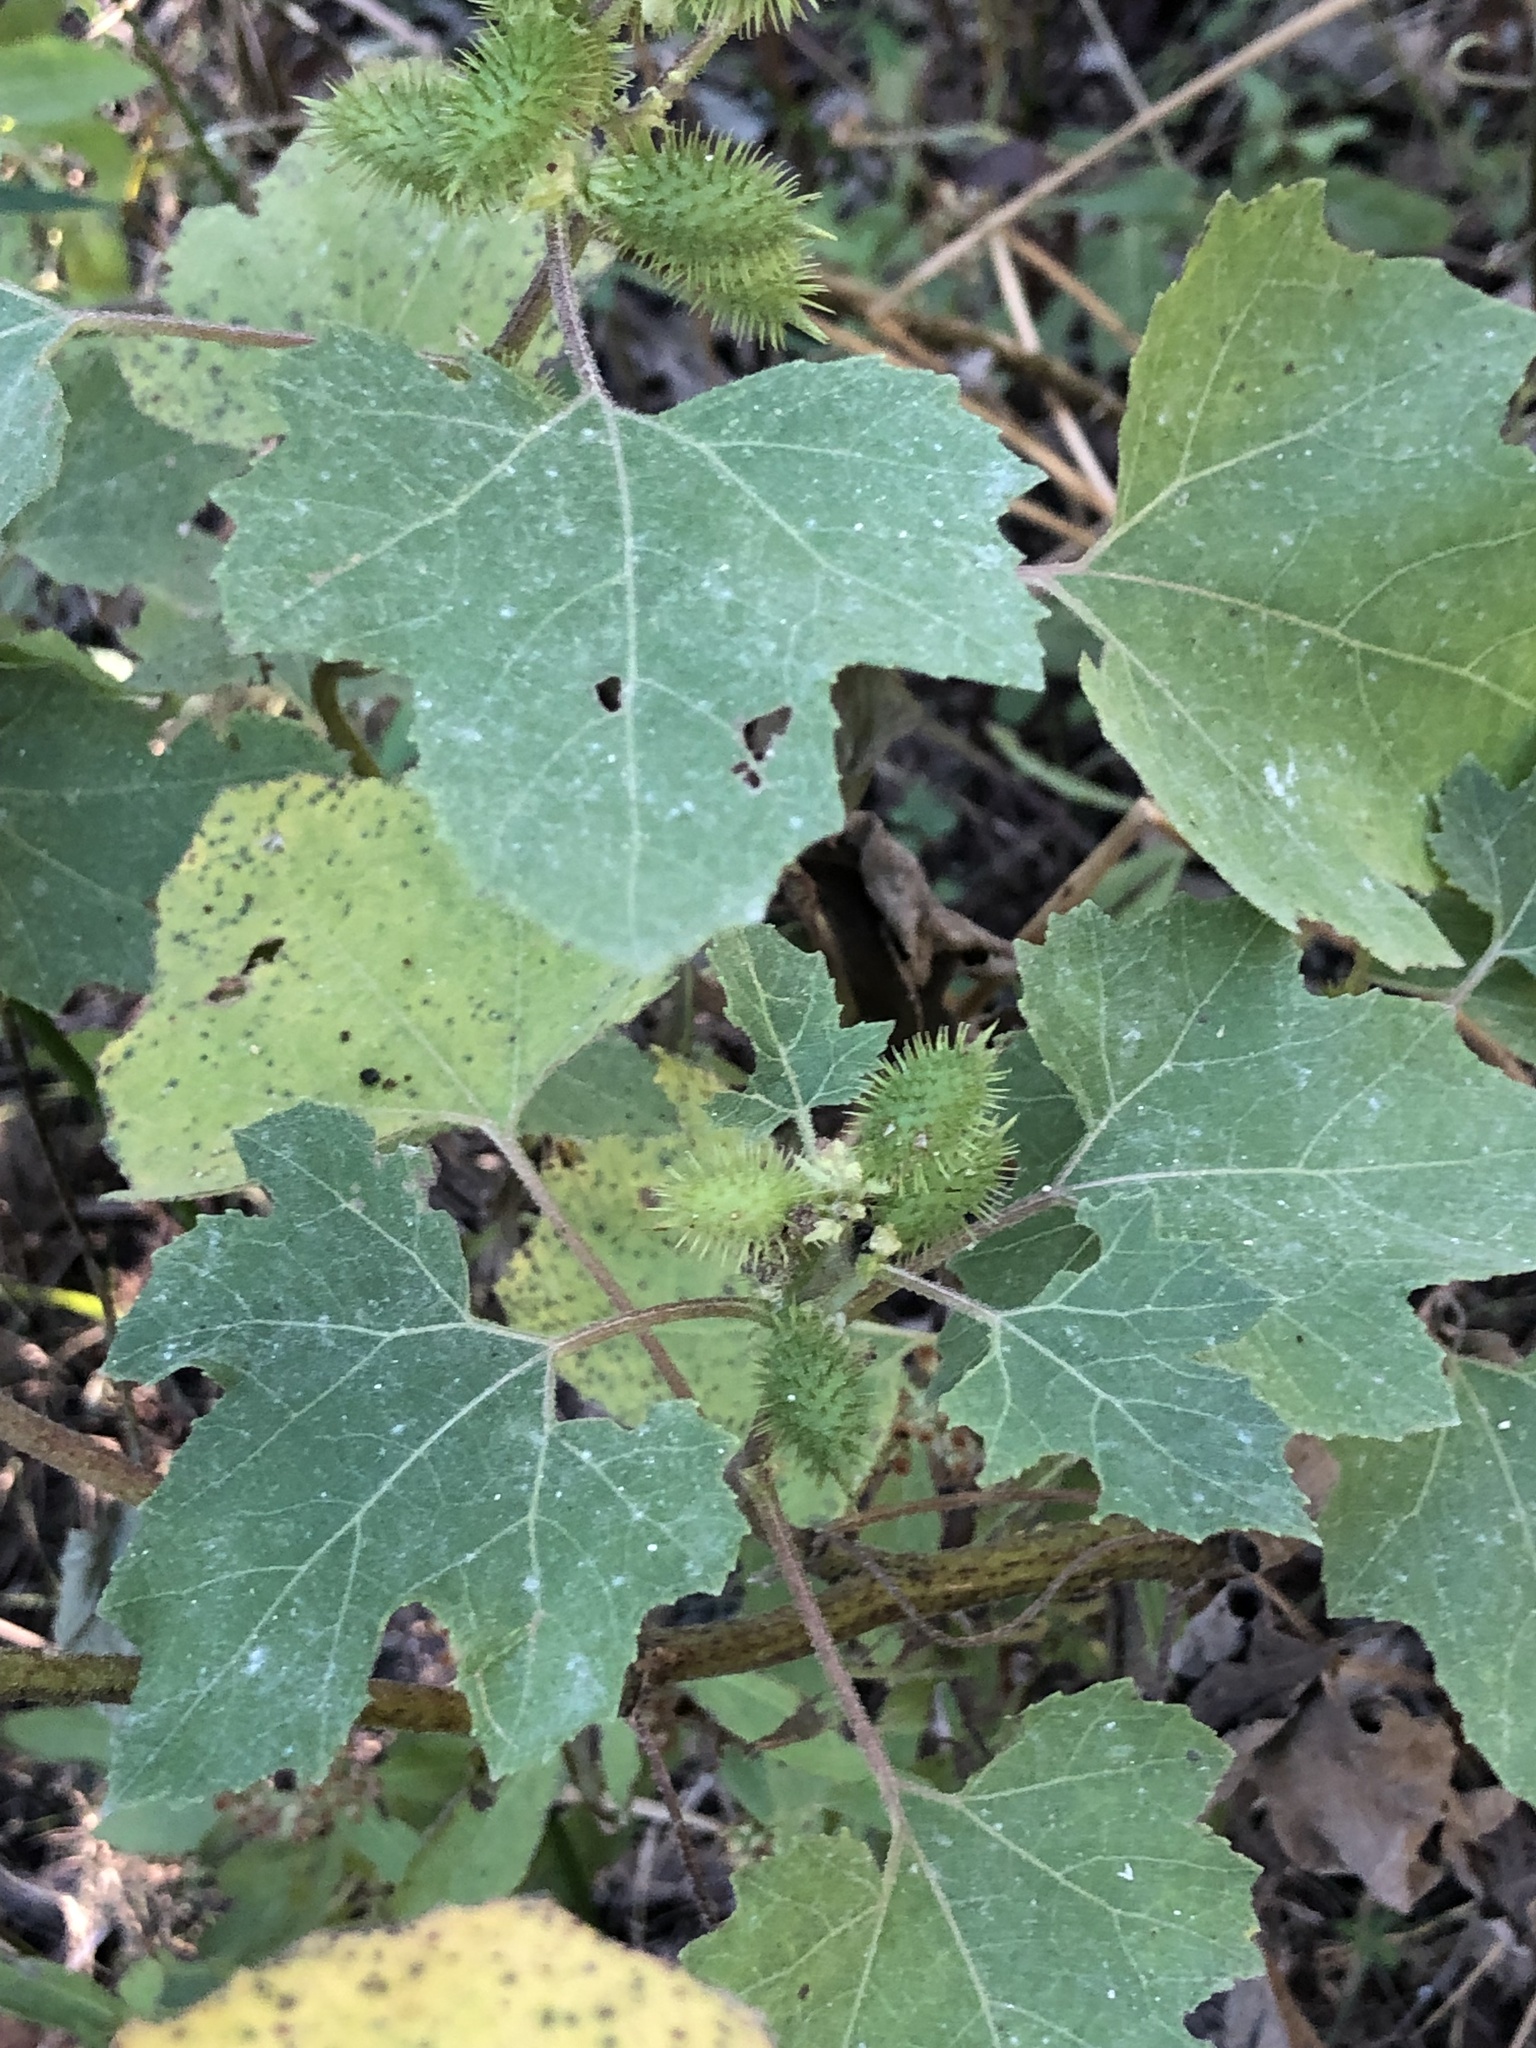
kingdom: Plantae
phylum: Tracheophyta
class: Magnoliopsida
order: Asterales
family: Asteraceae
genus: Xanthium
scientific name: Xanthium strumarium
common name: Rough cocklebur
